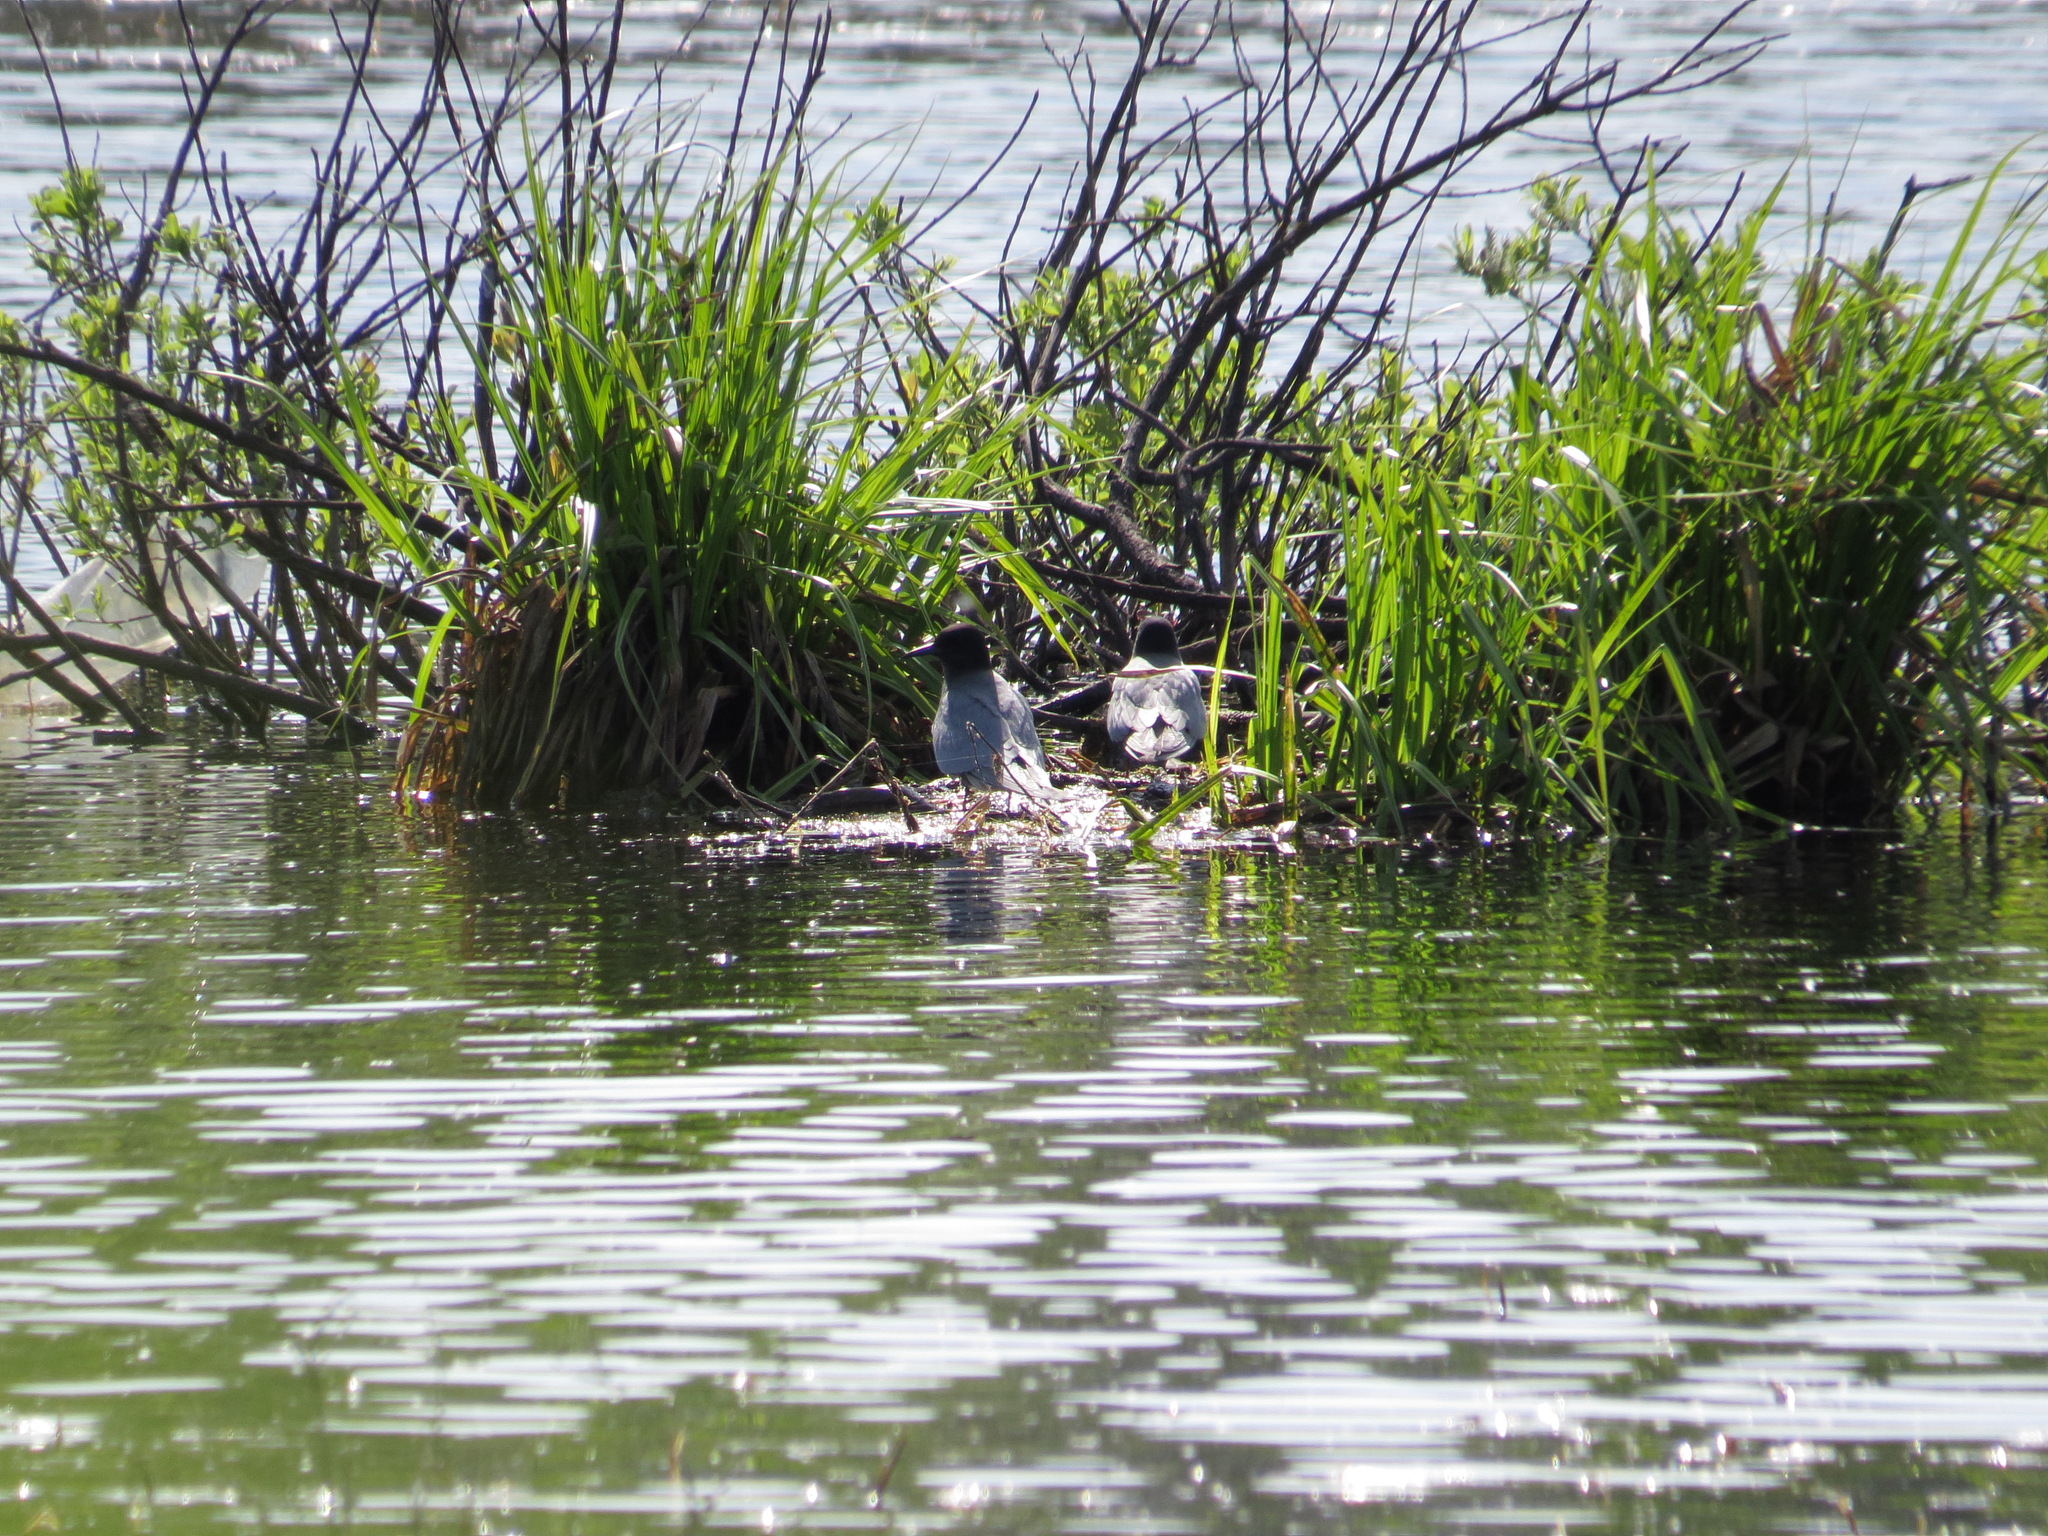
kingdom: Animalia
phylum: Chordata
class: Aves
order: Charadriiformes
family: Laridae
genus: Chlidonias
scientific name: Chlidonias niger
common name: Black tern
